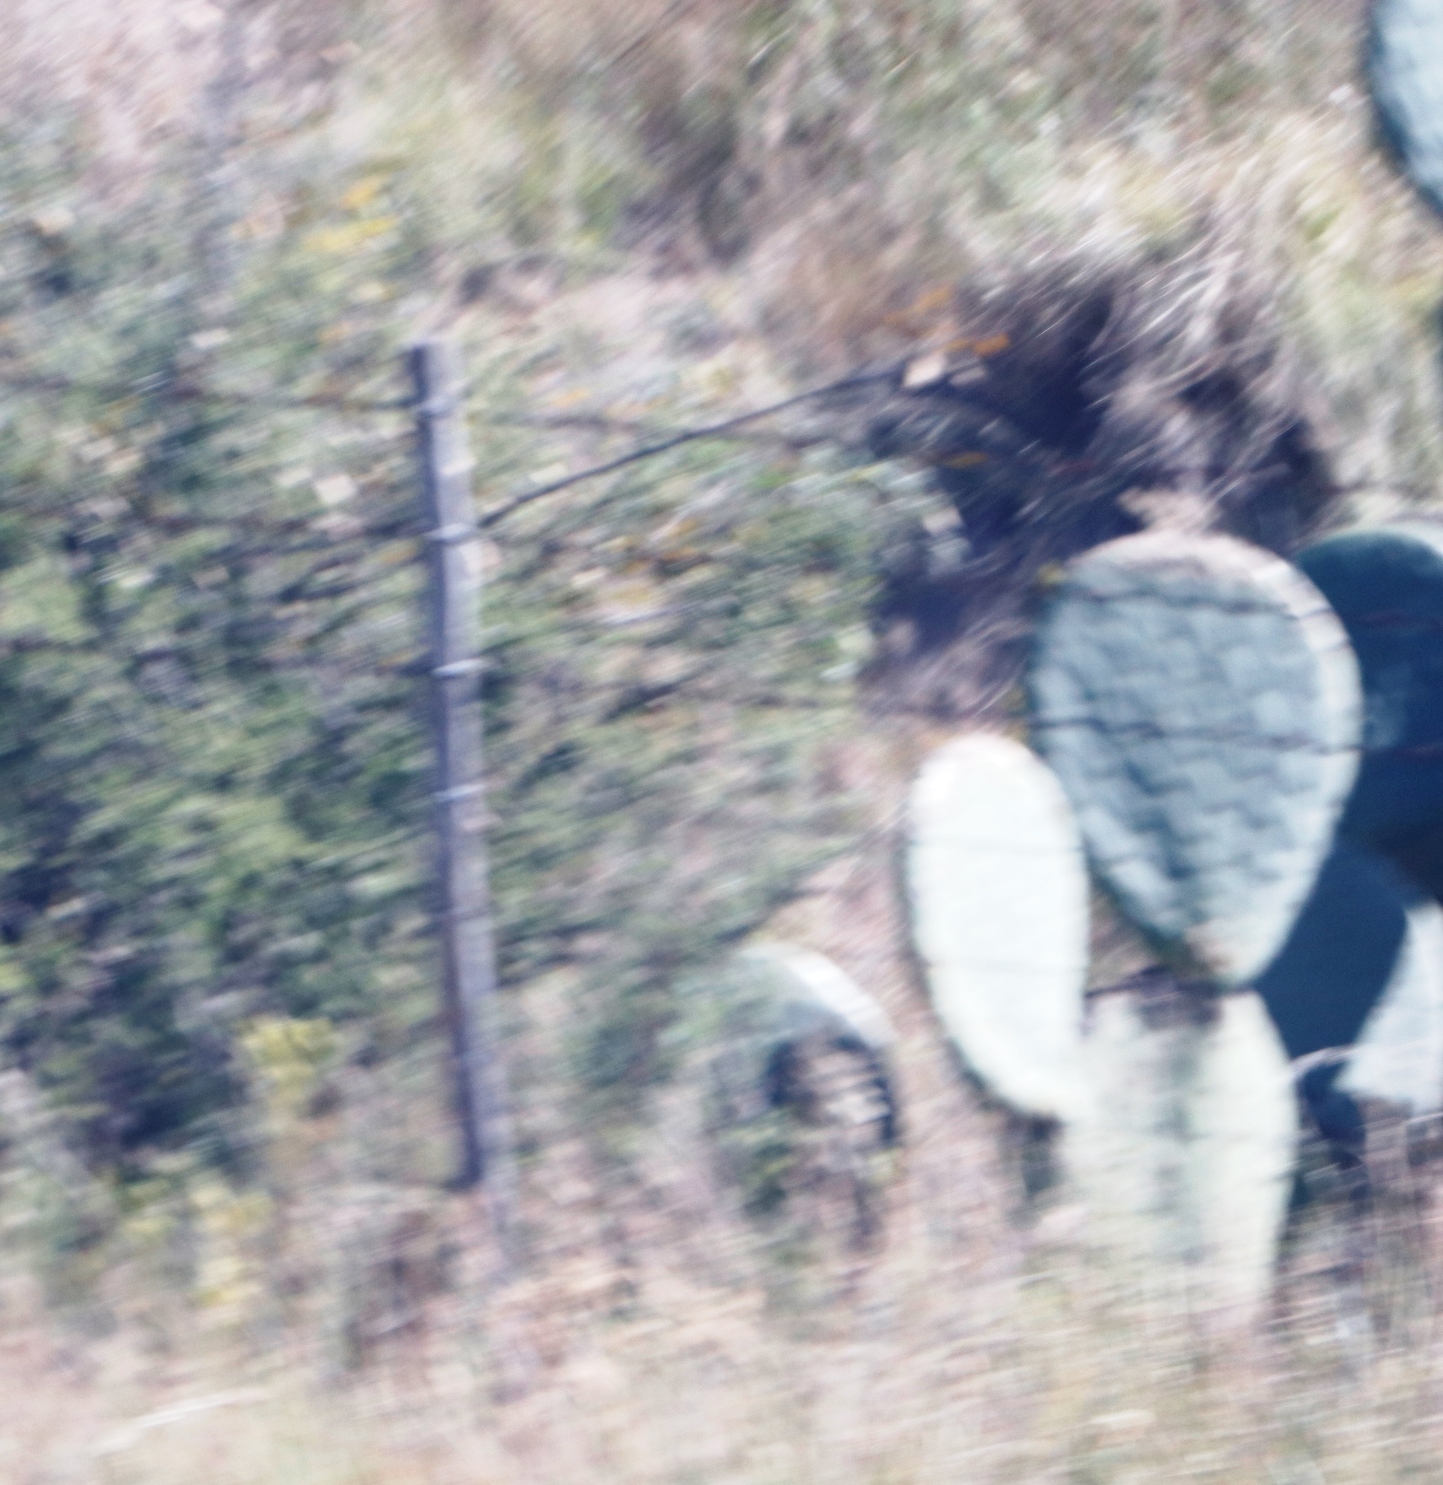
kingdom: Plantae
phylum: Tracheophyta
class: Magnoliopsida
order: Caryophyllales
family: Cactaceae
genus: Opuntia
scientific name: Opuntia robusta
